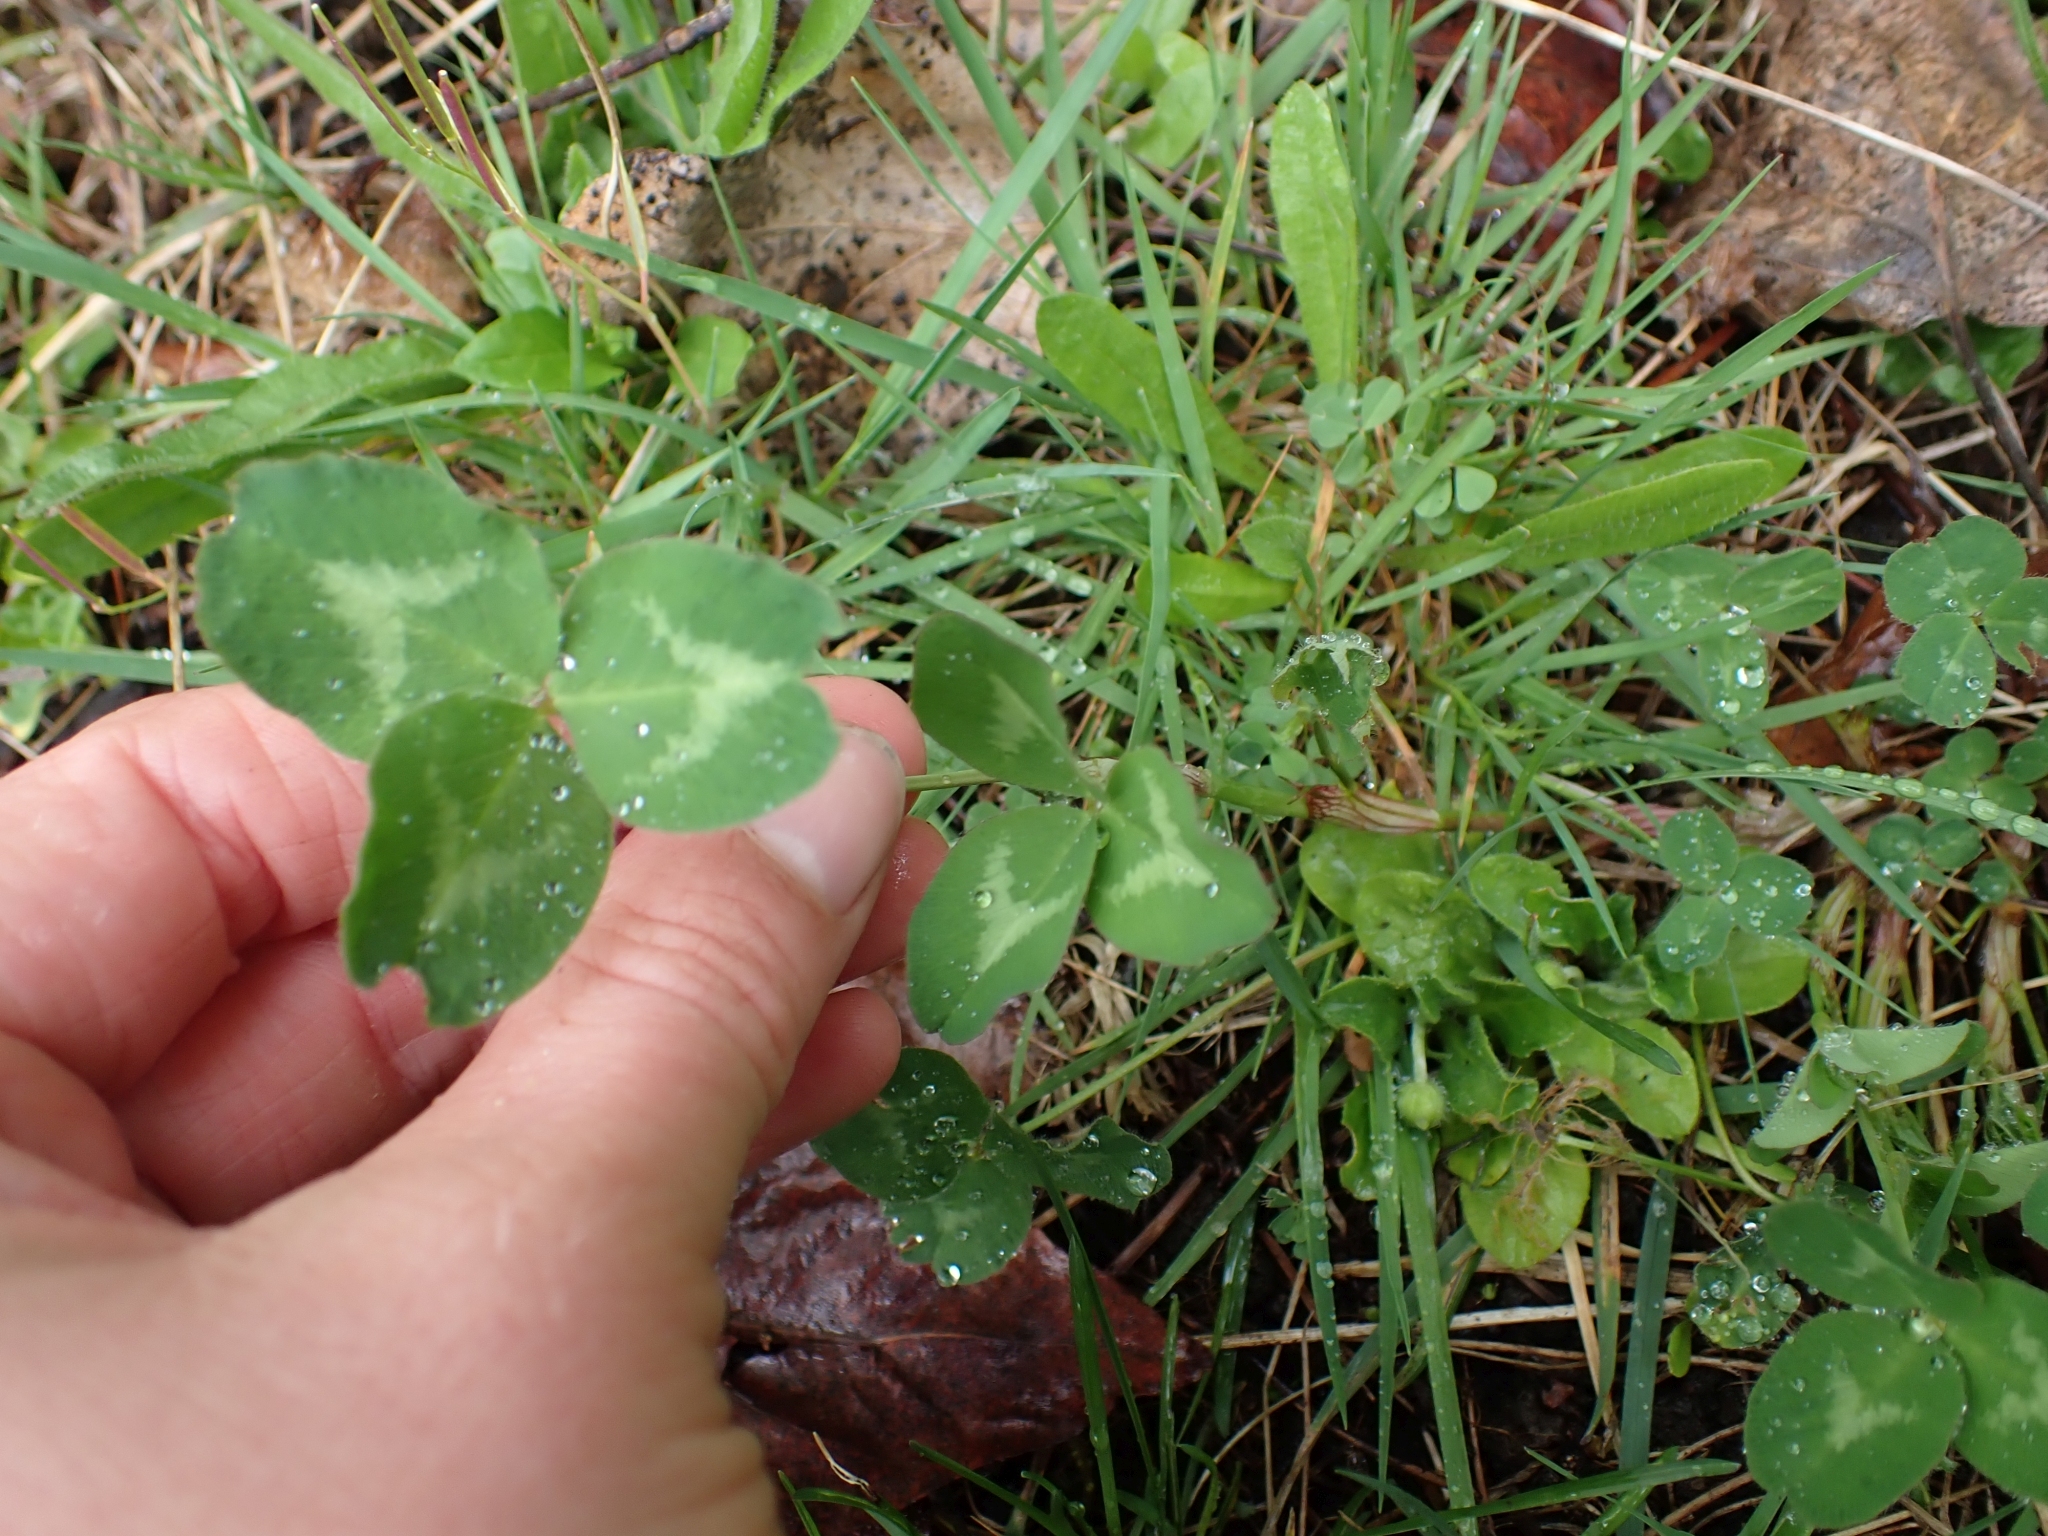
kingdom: Plantae
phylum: Tracheophyta
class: Magnoliopsida
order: Fabales
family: Fabaceae
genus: Trifolium
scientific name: Trifolium pratense
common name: Red clover
